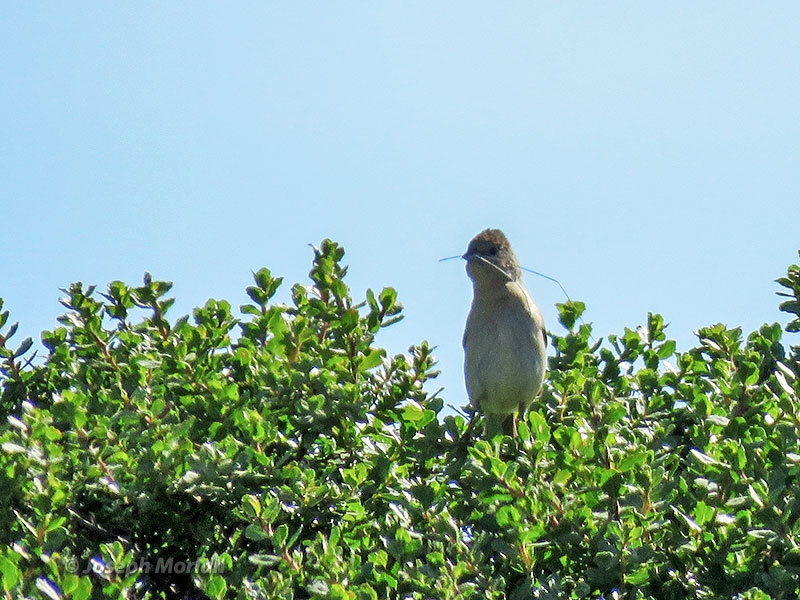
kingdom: Animalia
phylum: Chordata
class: Aves
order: Passeriformes
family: Cardinalidae
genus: Passerina
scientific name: Passerina amoena
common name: Lazuli bunting
